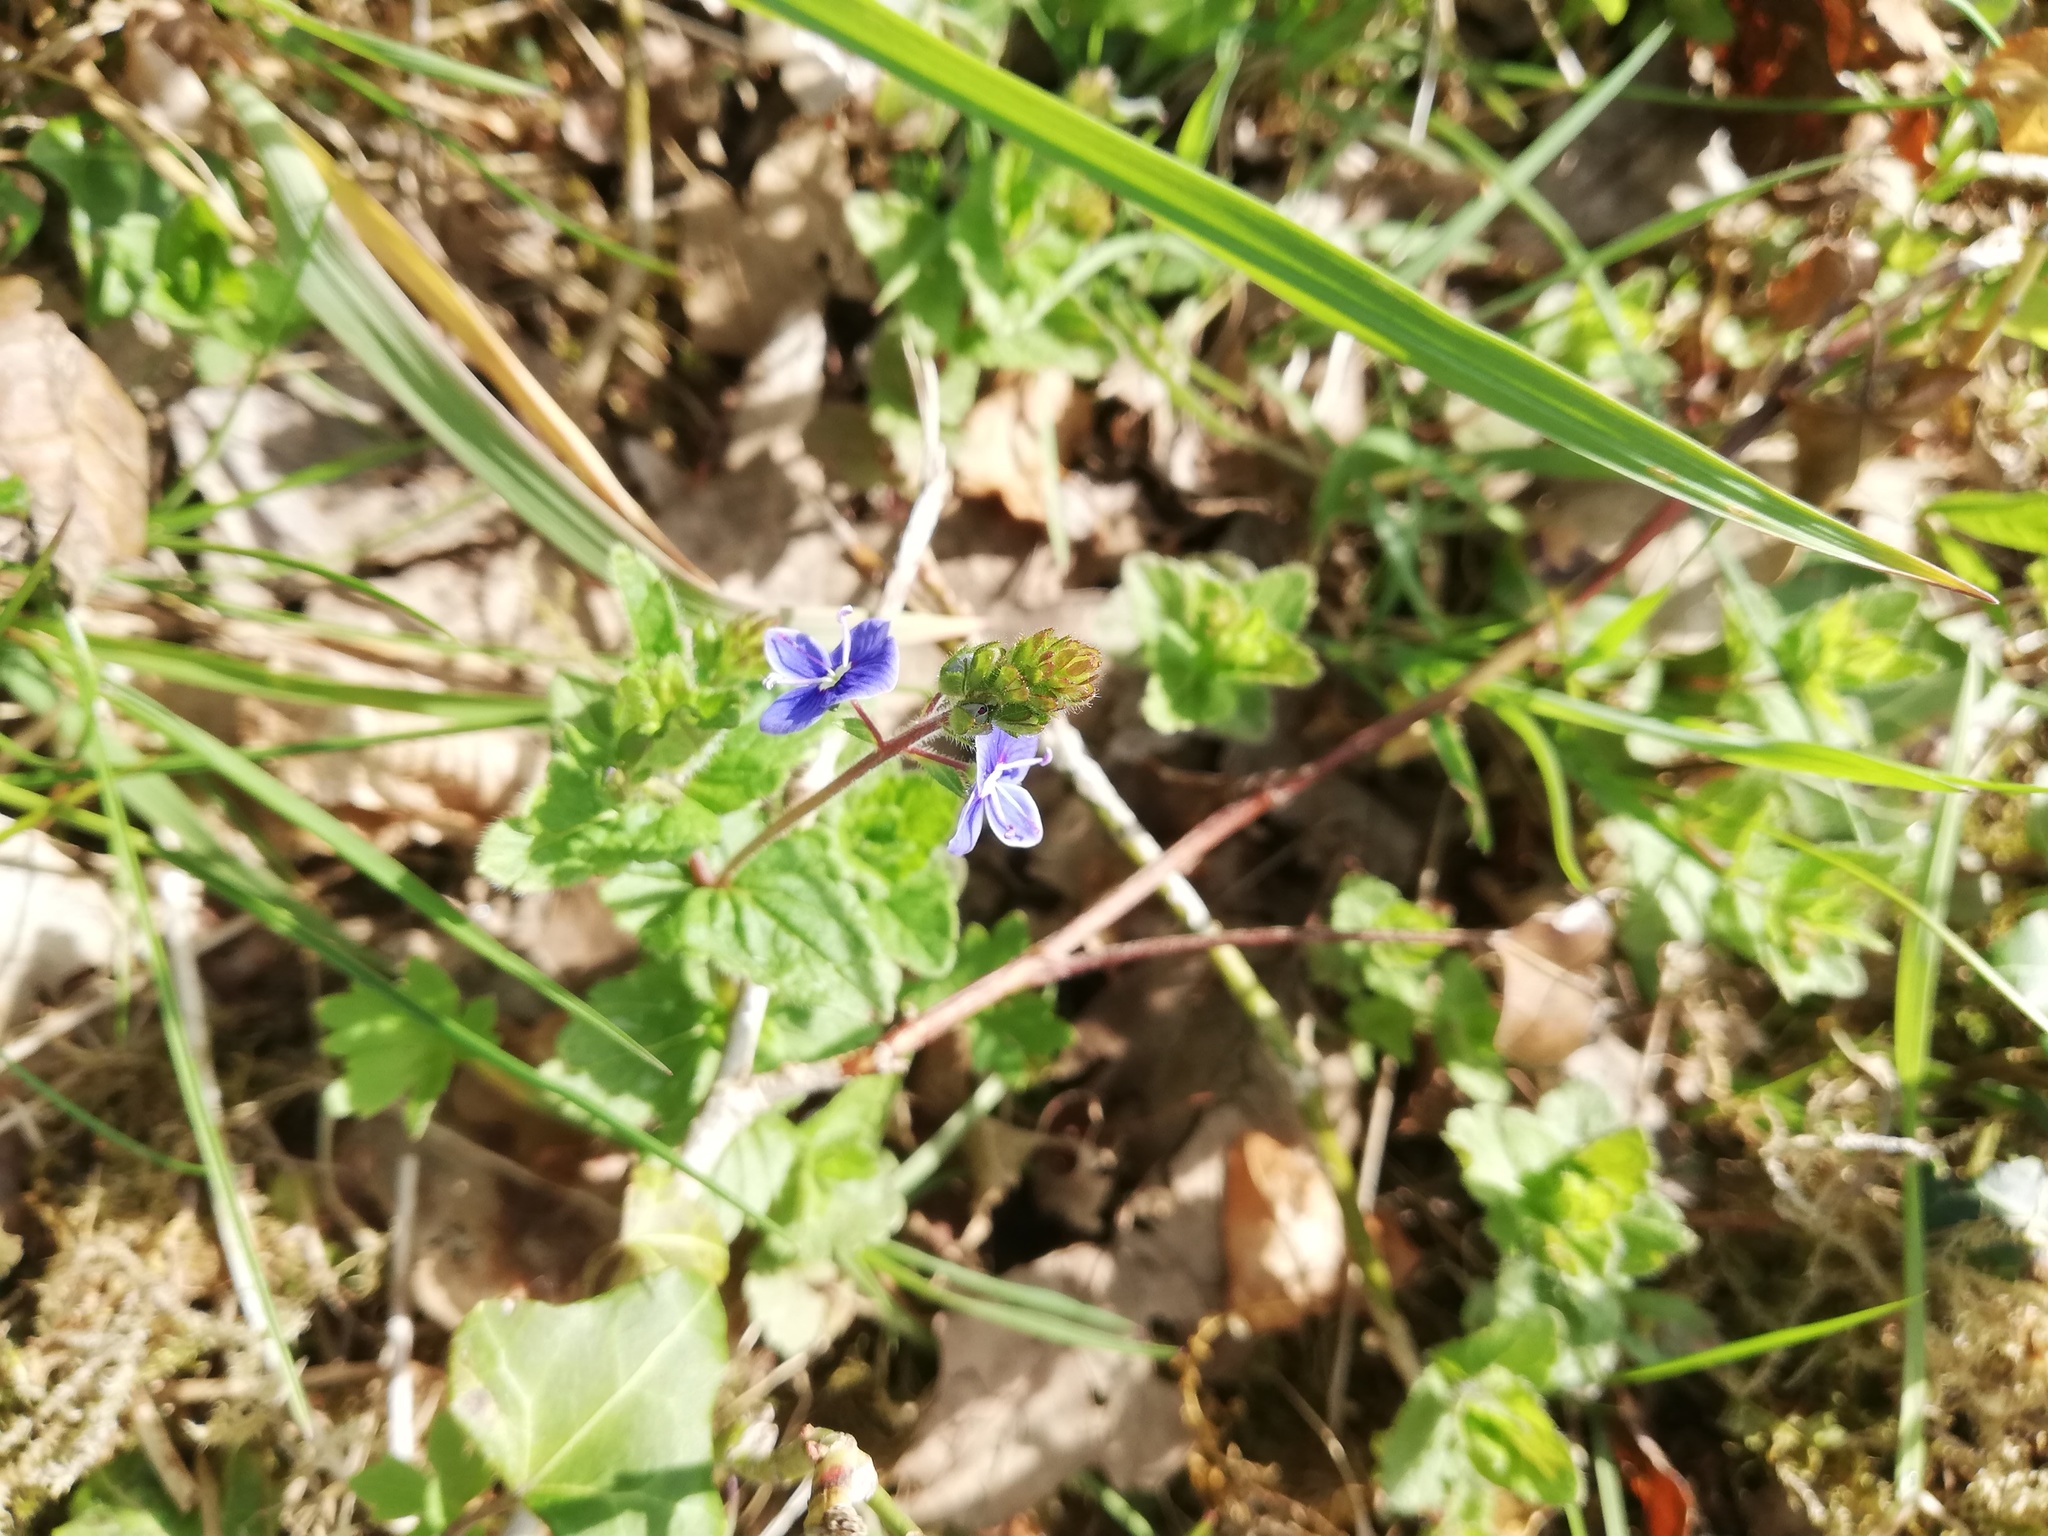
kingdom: Plantae
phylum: Tracheophyta
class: Magnoliopsida
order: Lamiales
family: Plantaginaceae
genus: Veronica
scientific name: Veronica chamaedrys
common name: Germander speedwell
